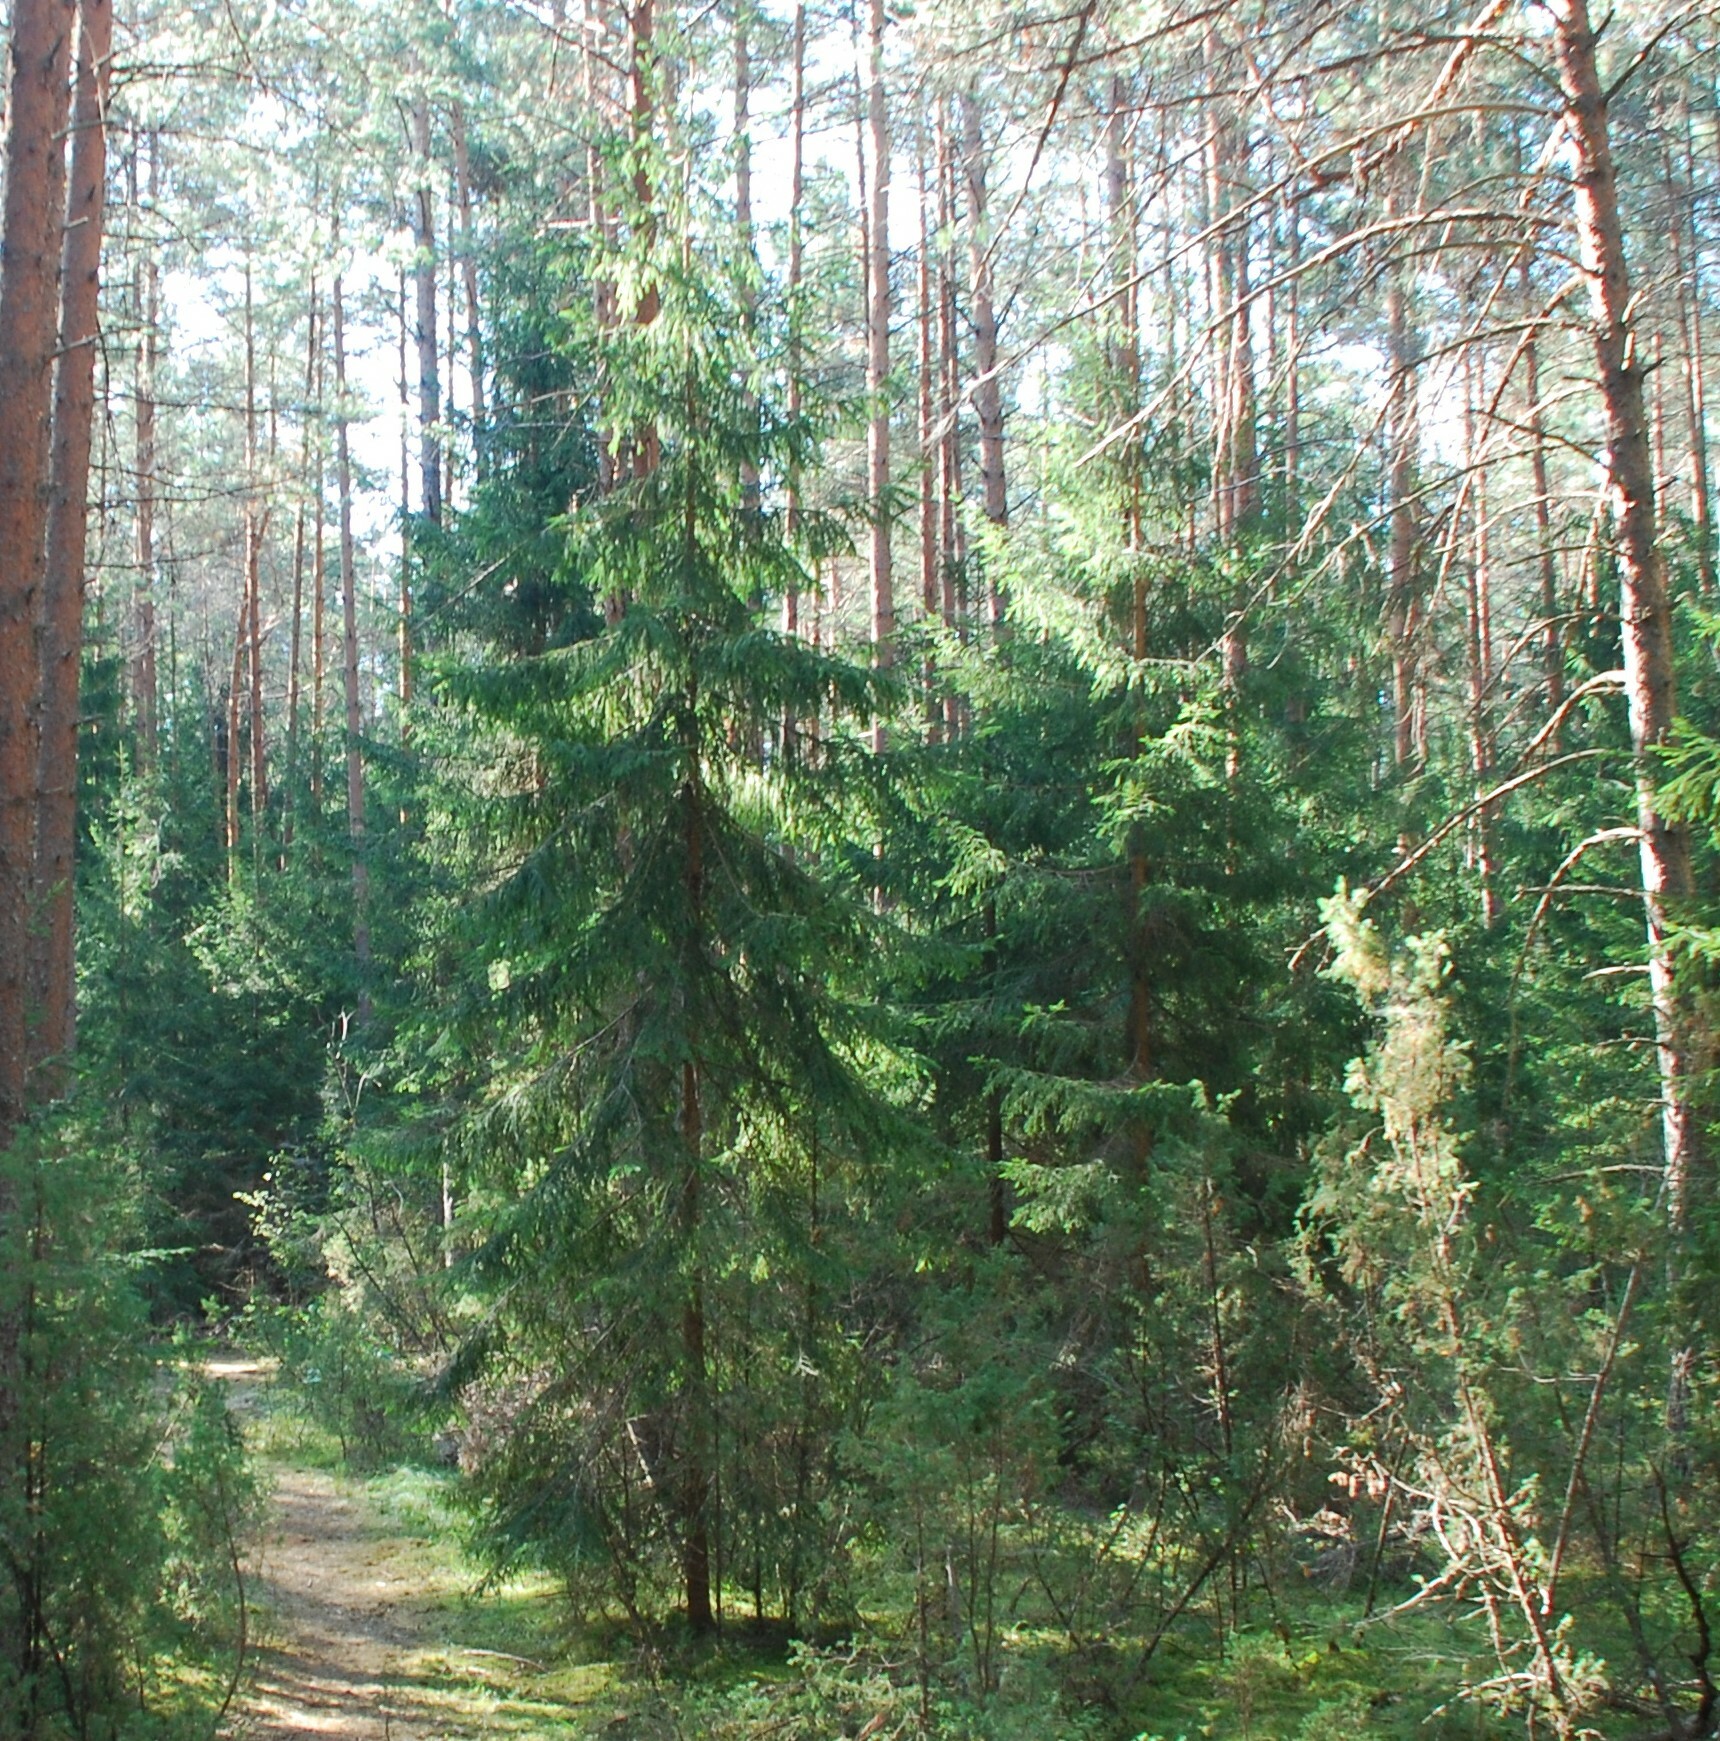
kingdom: Plantae
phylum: Tracheophyta
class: Pinopsida
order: Pinales
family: Pinaceae
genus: Picea
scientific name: Picea abies
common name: Norway spruce
